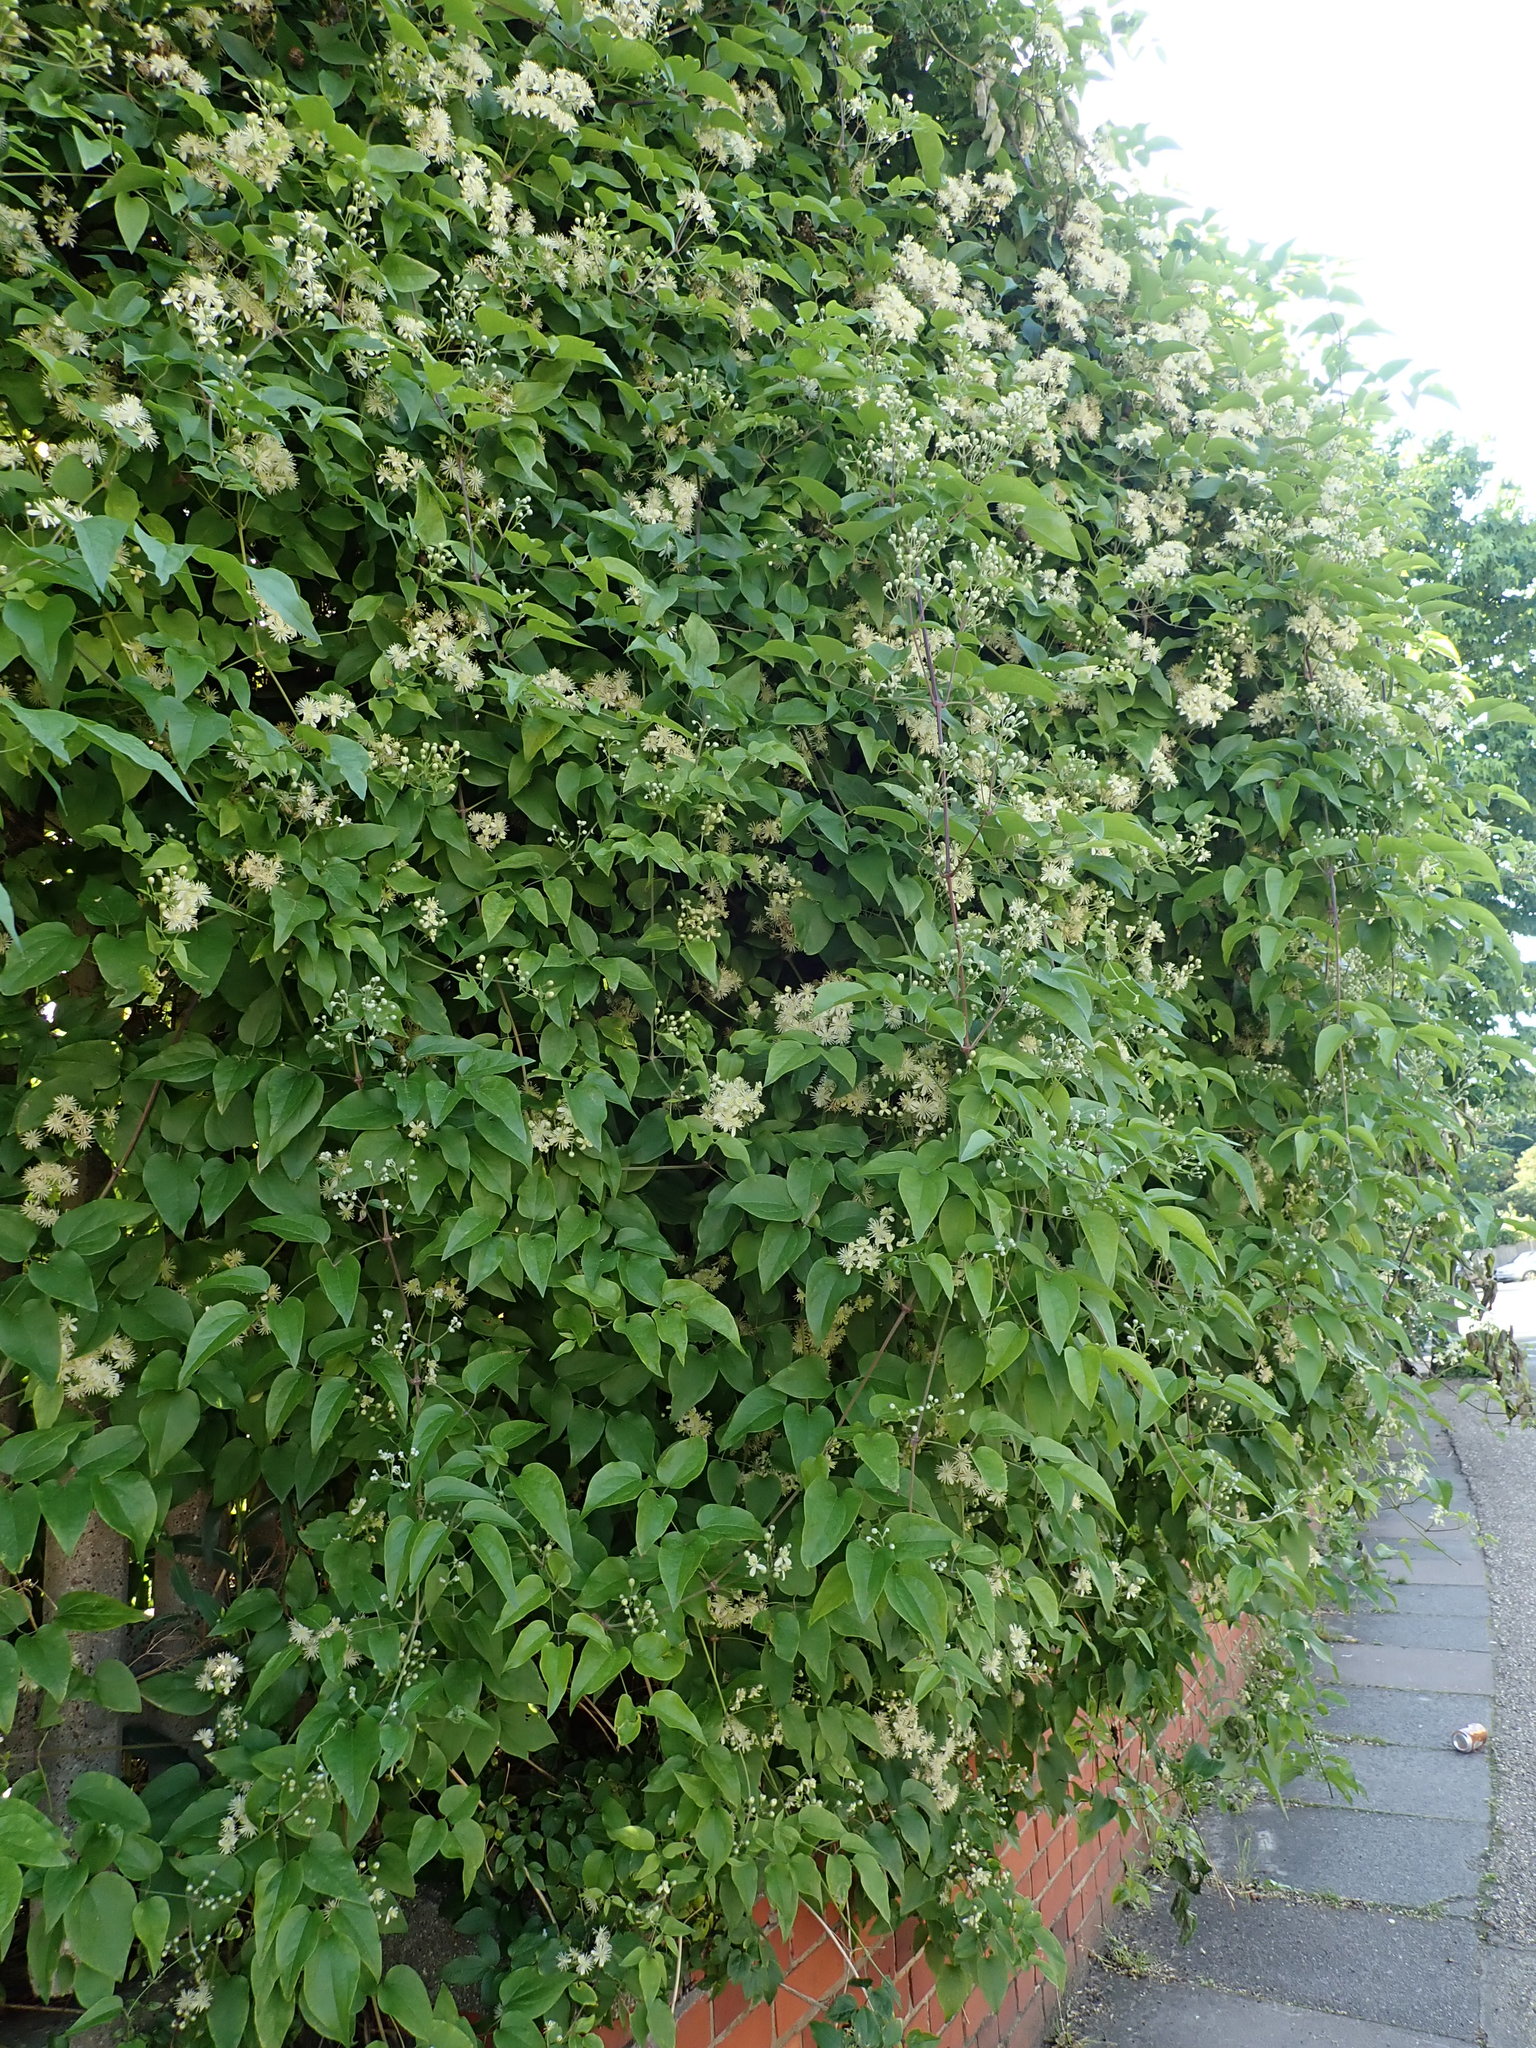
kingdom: Plantae
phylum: Tracheophyta
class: Magnoliopsida
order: Ranunculales
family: Ranunculaceae
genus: Clematis
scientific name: Clematis vitalba
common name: Evergreen clematis
